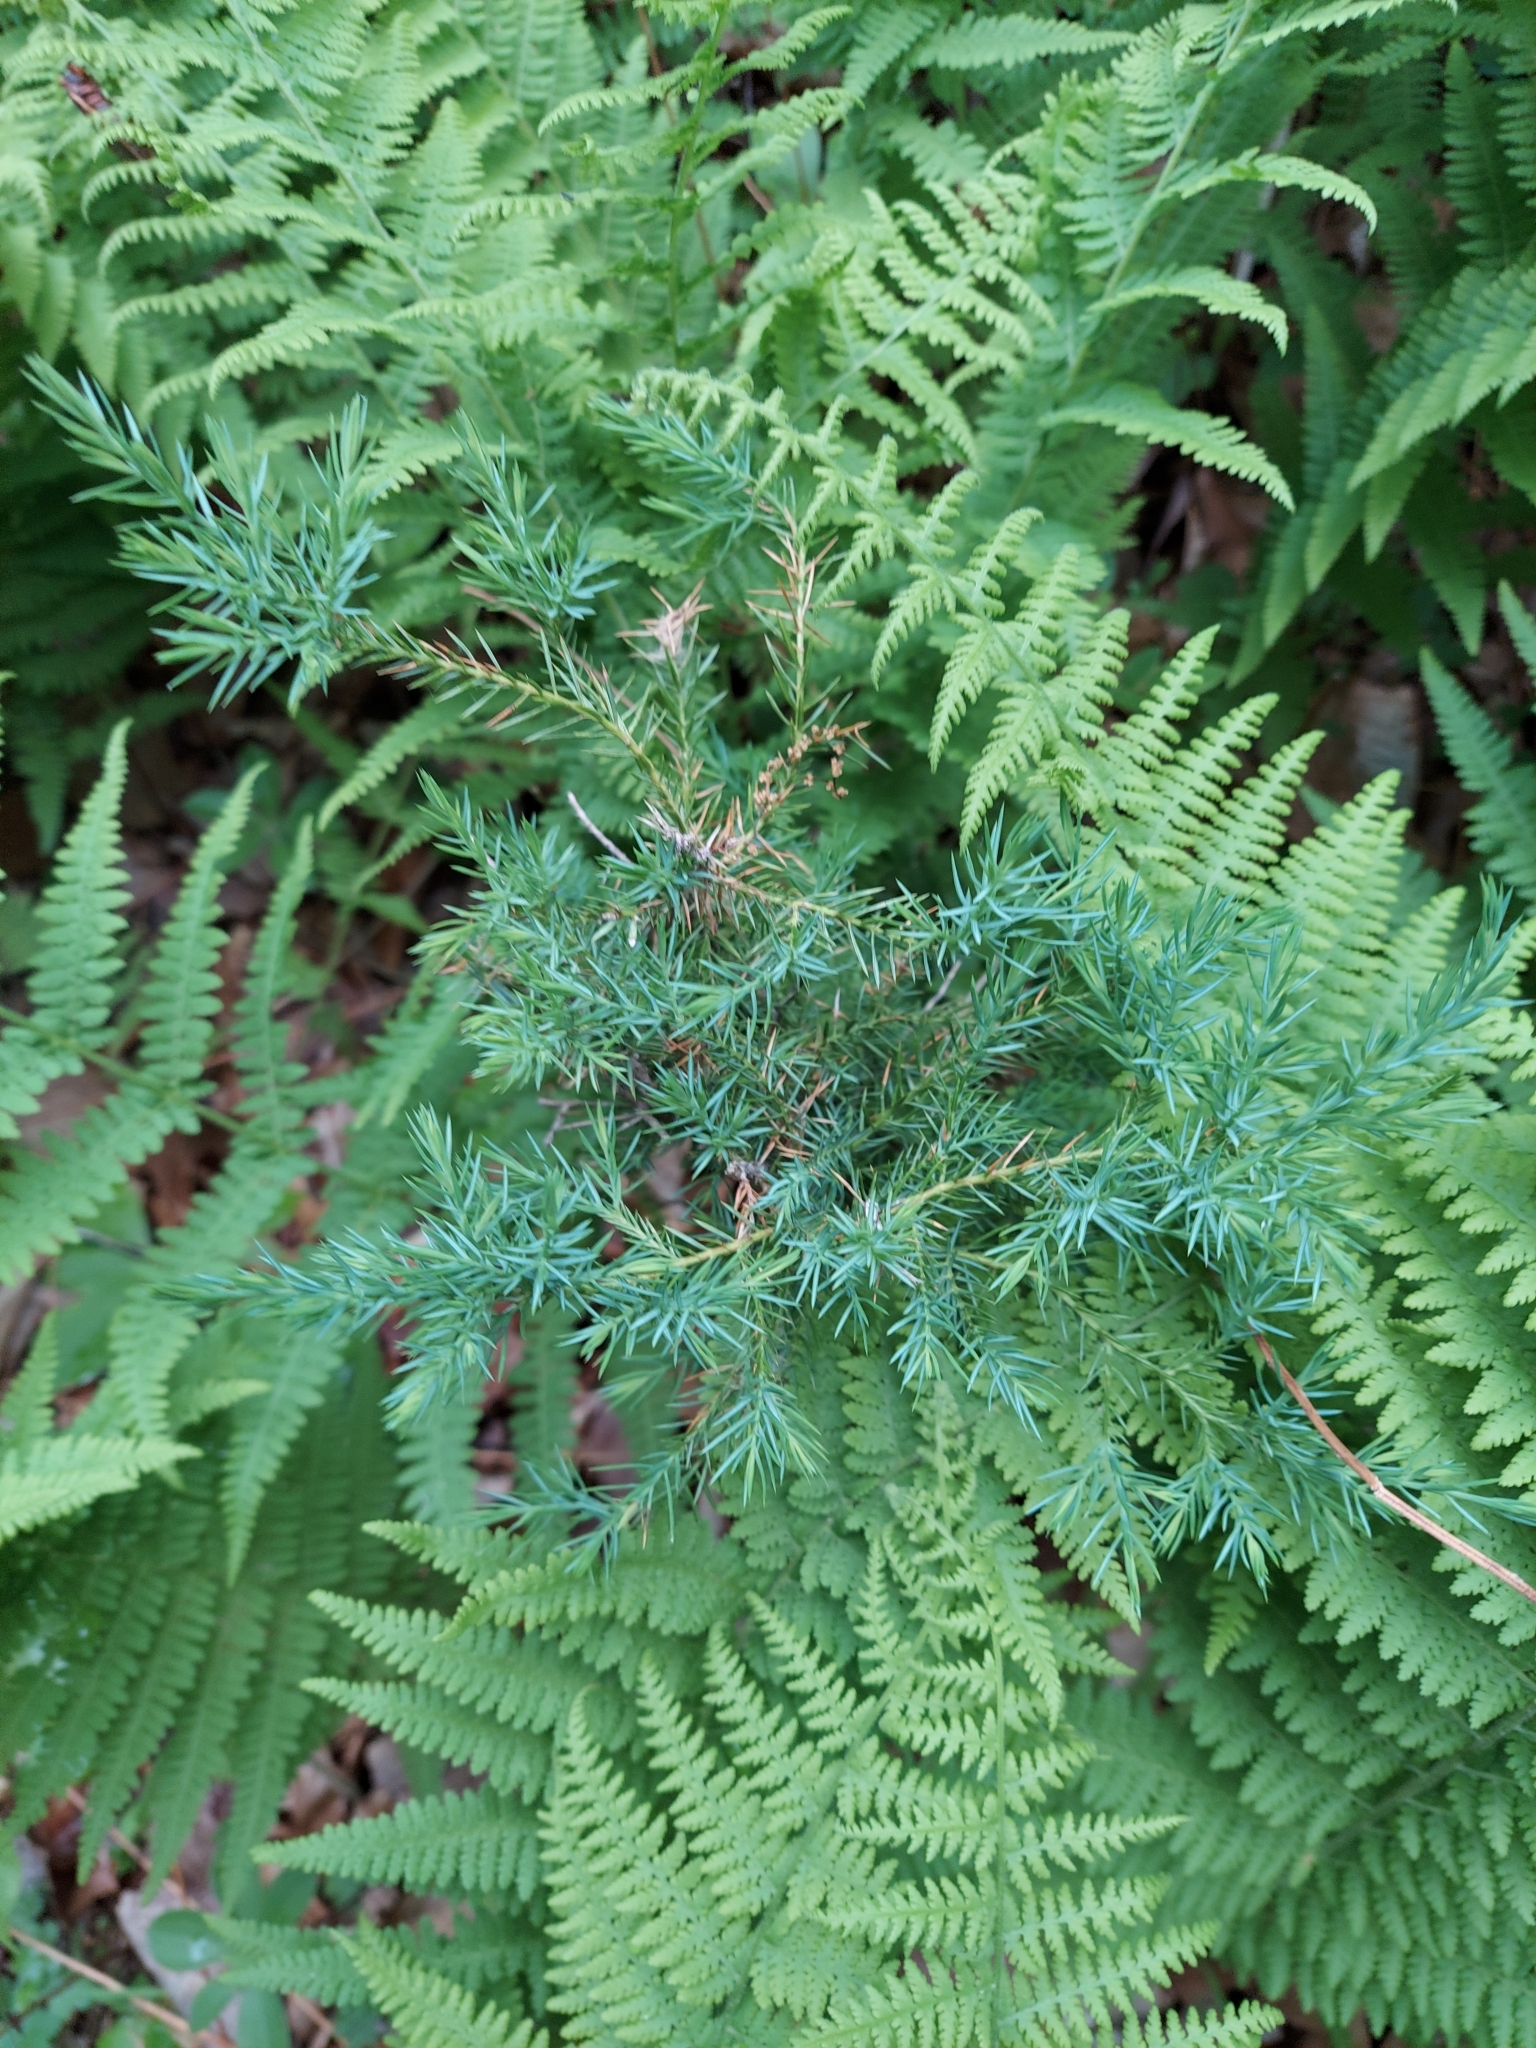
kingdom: Plantae
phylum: Tracheophyta
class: Pinopsida
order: Pinales
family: Cupressaceae
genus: Juniperus
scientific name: Juniperus virginiana
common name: Red juniper
